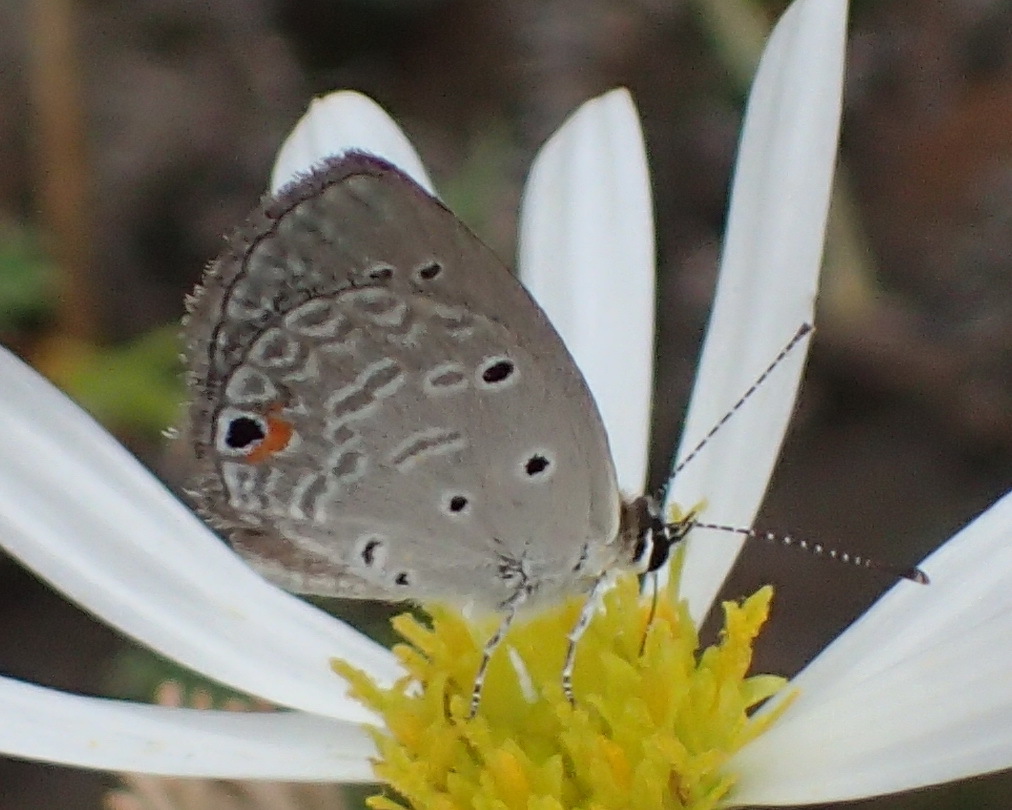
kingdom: Animalia
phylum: Arthropoda
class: Insecta
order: Lepidoptera
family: Lycaenidae
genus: Eicochrysops
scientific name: Eicochrysops messapus
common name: Cupreous blue
